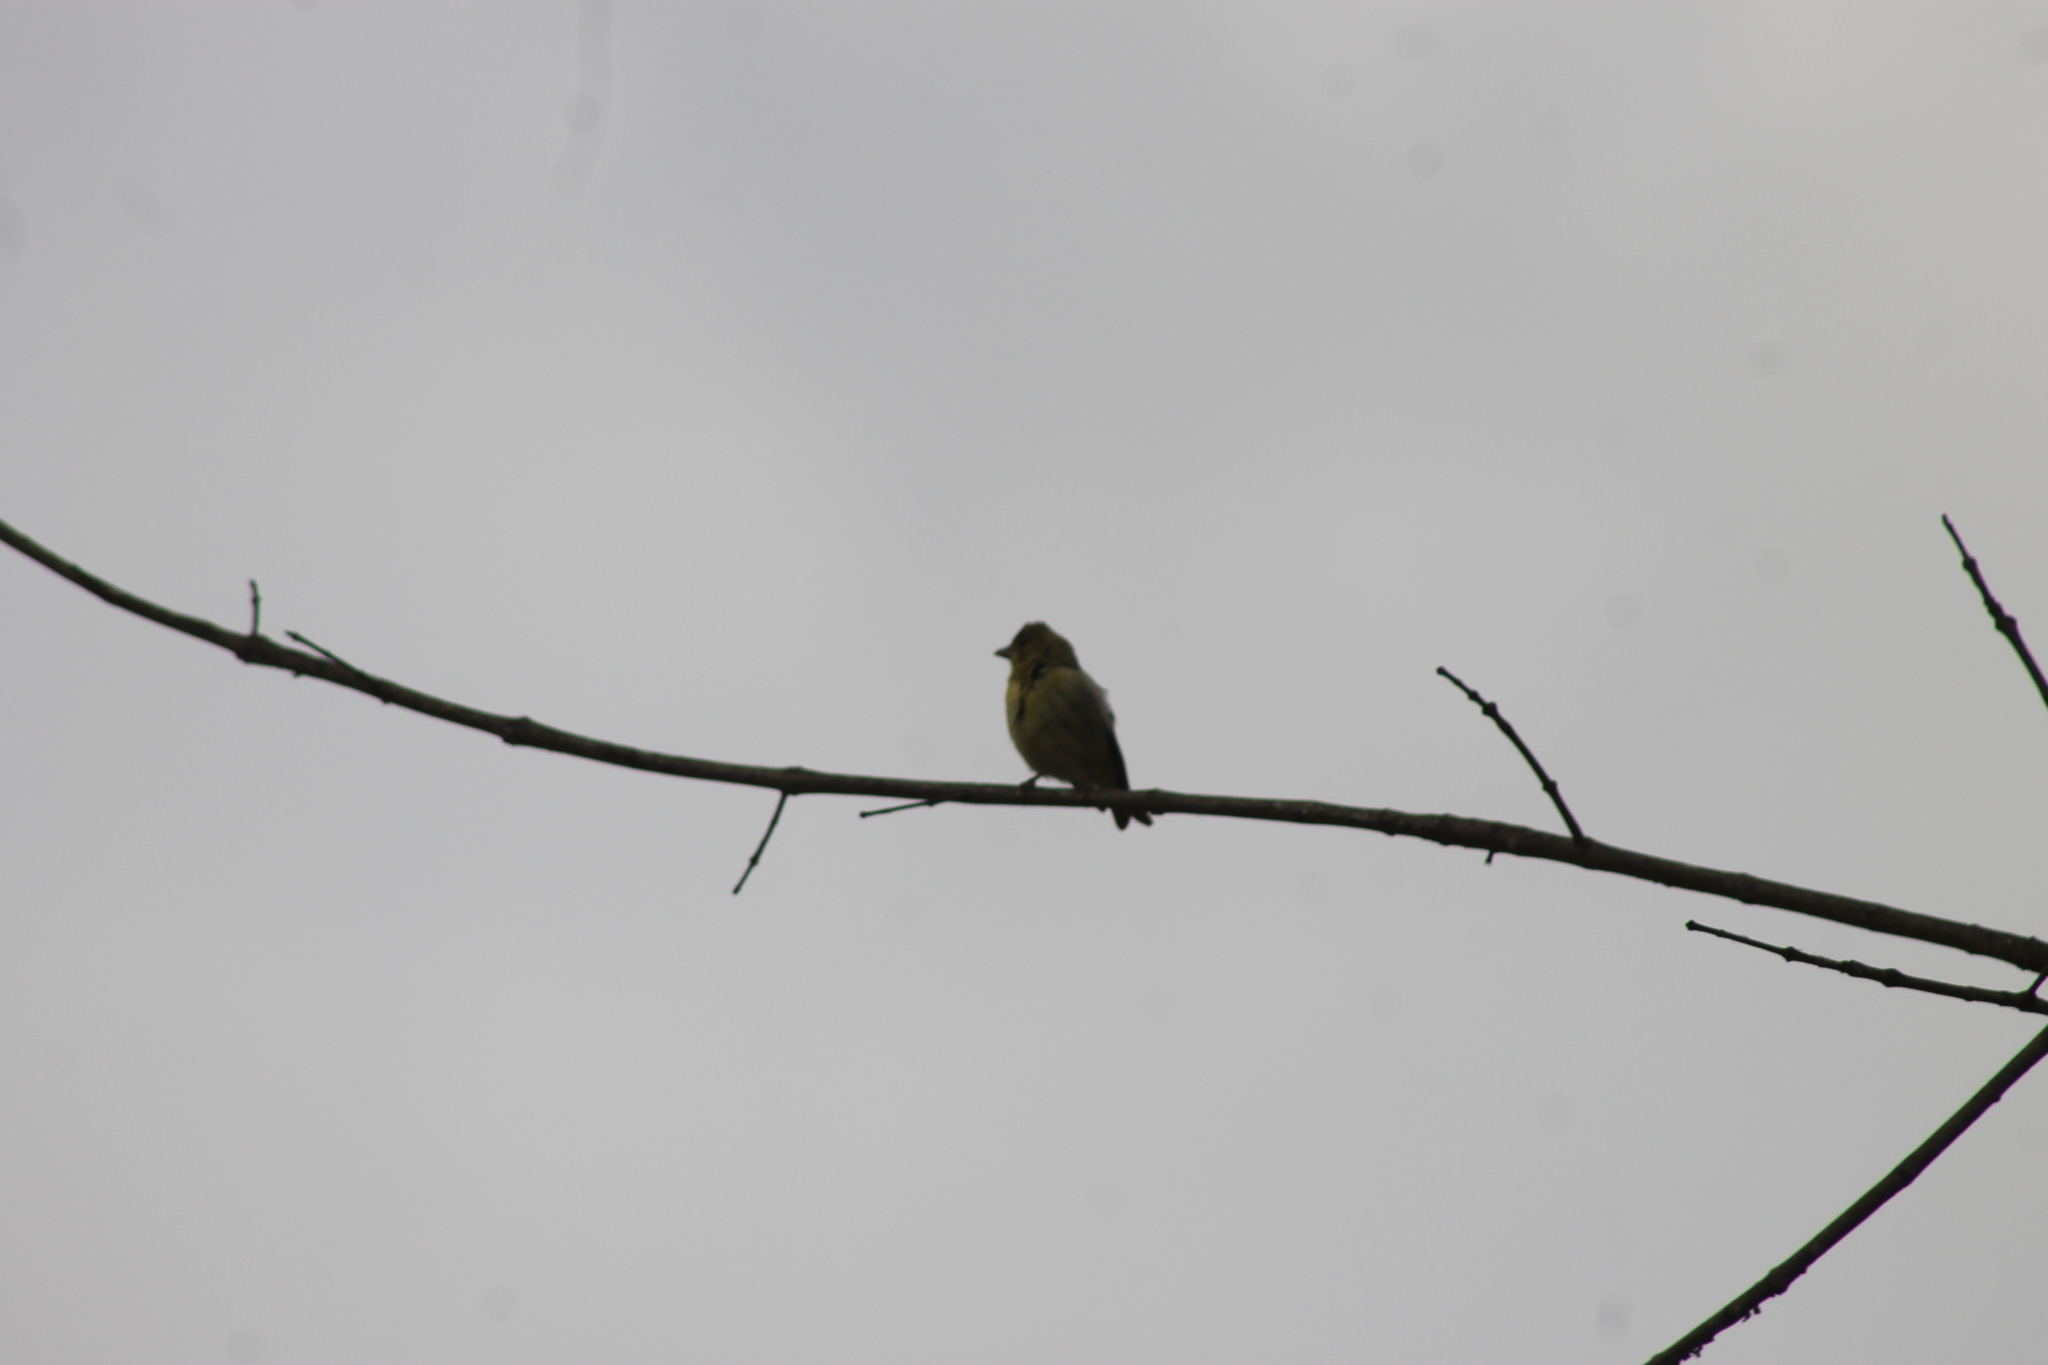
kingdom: Animalia
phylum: Chordata
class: Aves
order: Passeriformes
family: Fringillidae
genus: Spinus
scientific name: Spinus psaltria
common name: Lesser goldfinch
